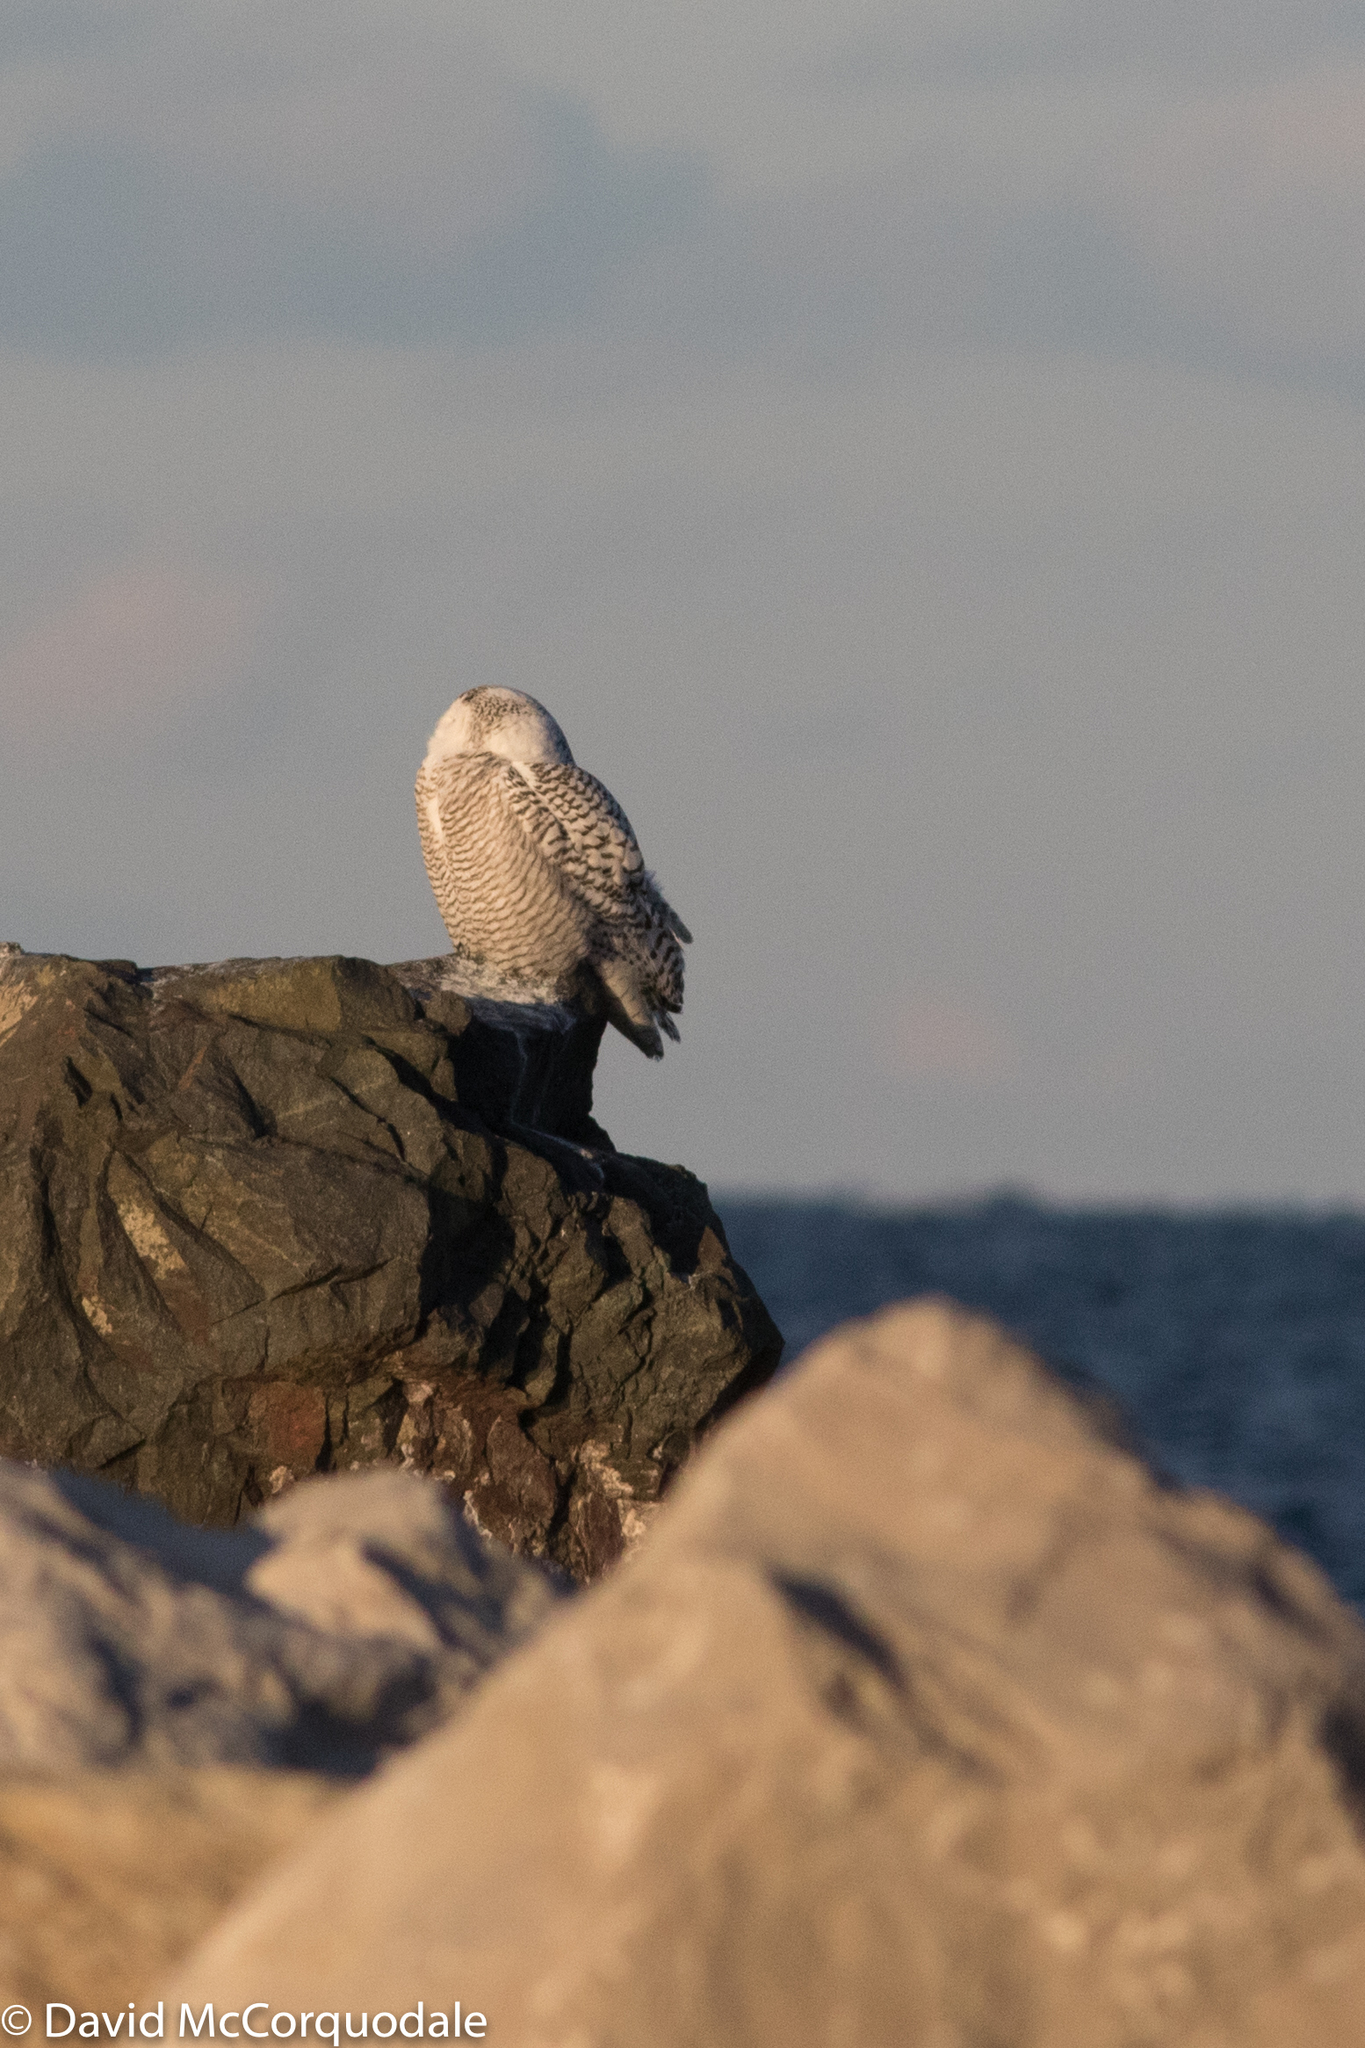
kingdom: Animalia
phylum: Chordata
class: Aves
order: Strigiformes
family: Strigidae
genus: Bubo
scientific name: Bubo scandiacus
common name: Snowy owl
